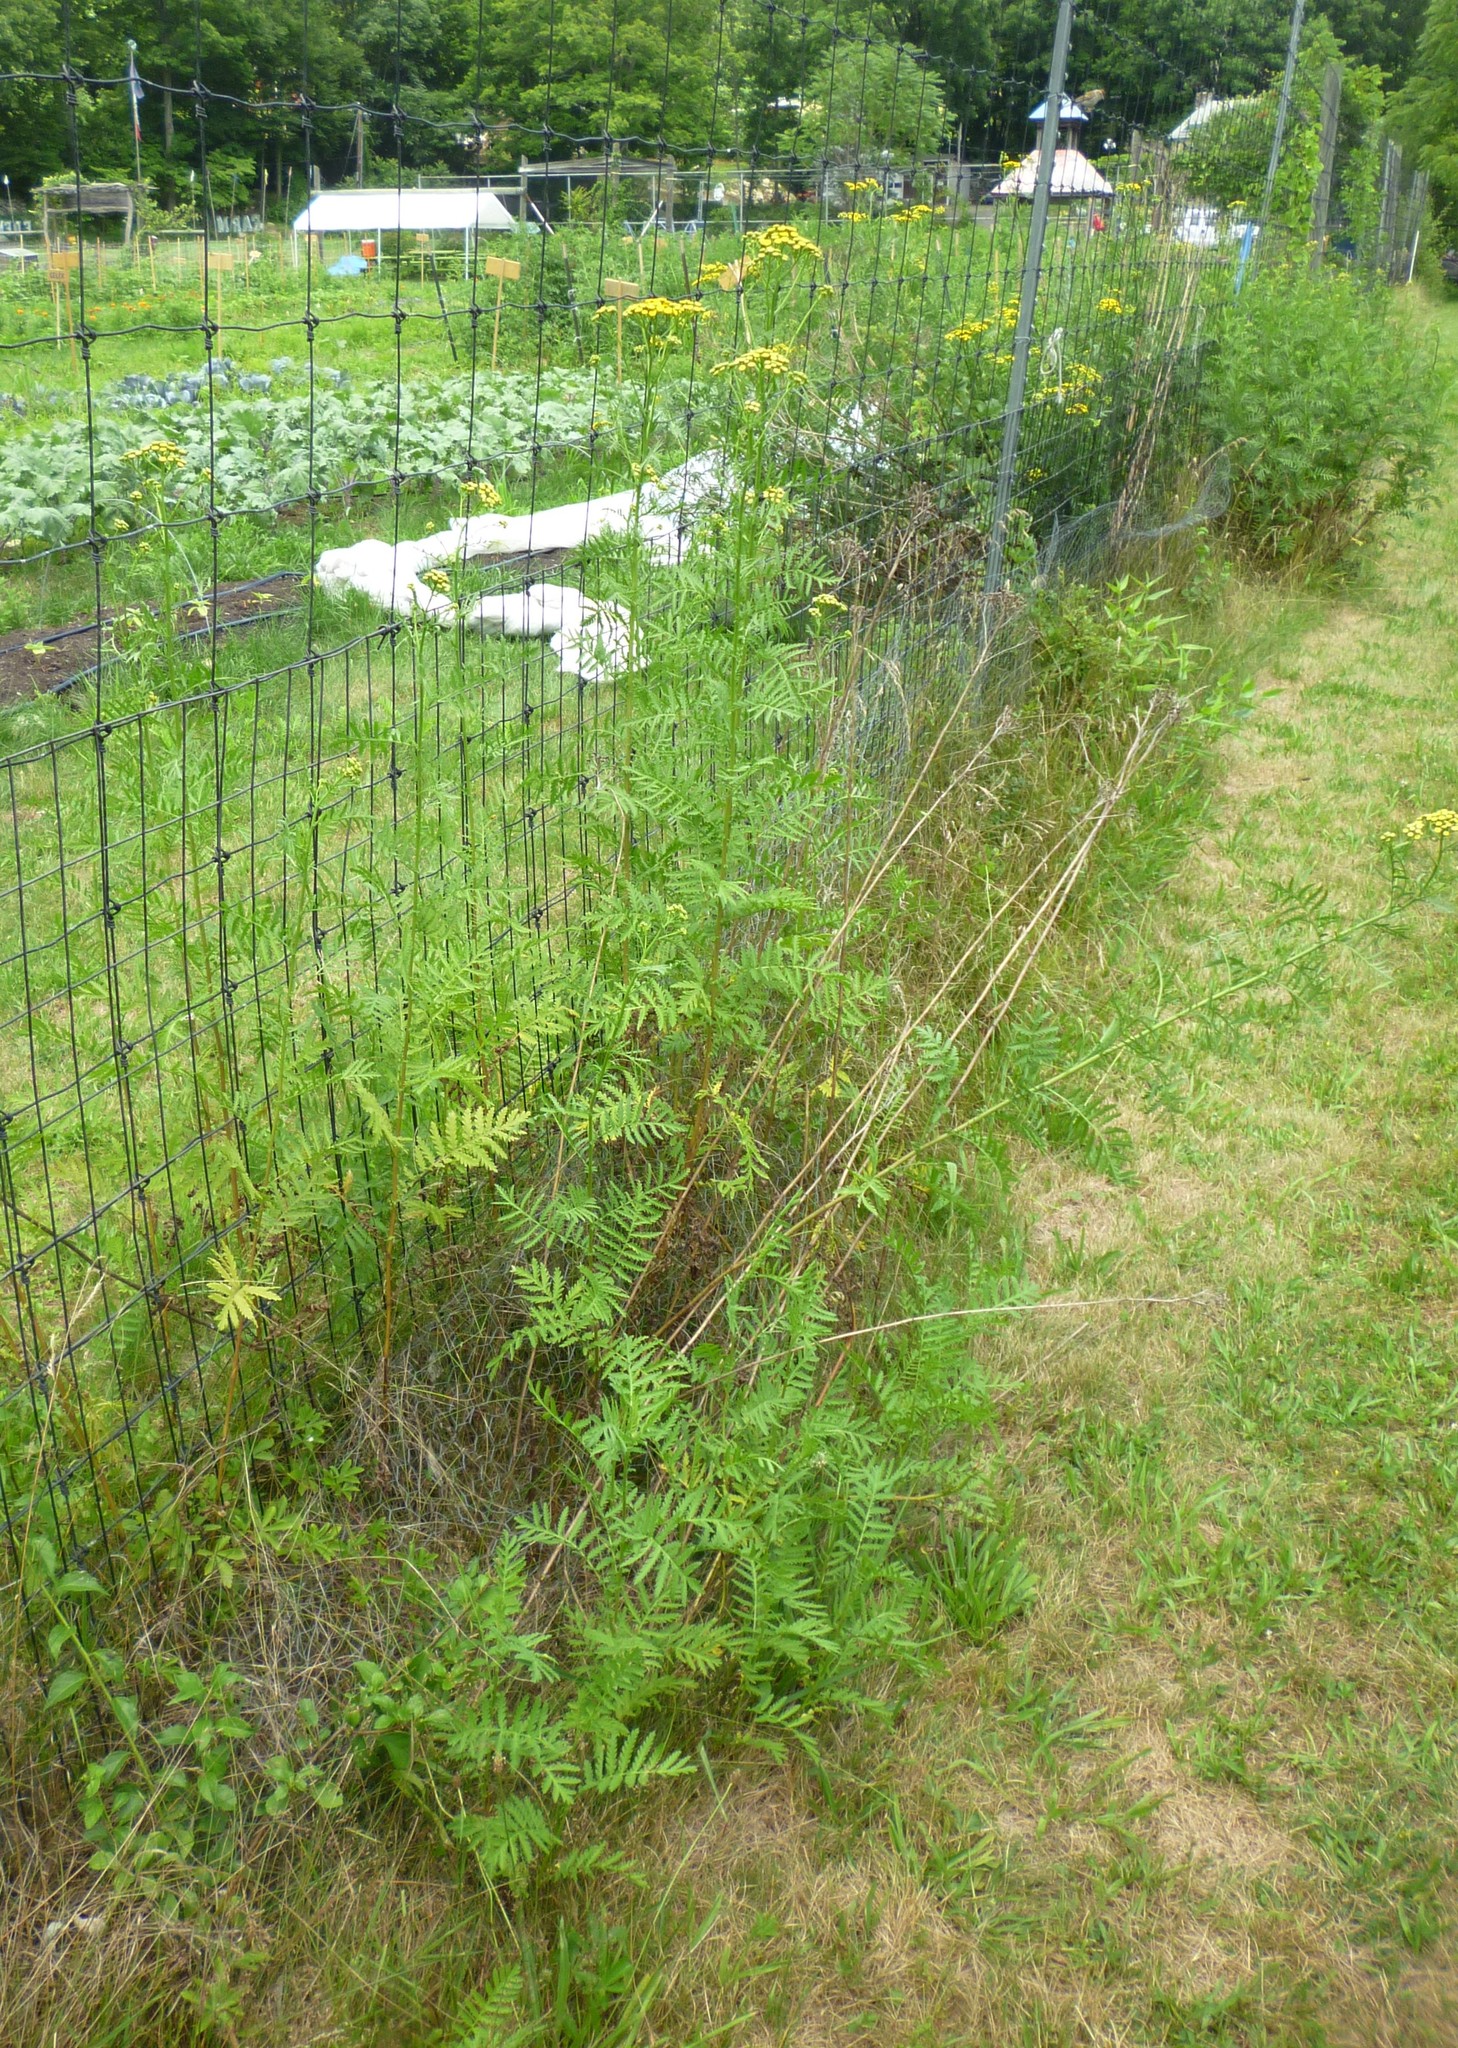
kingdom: Plantae
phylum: Tracheophyta
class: Magnoliopsida
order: Asterales
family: Asteraceae
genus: Tanacetum
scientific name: Tanacetum vulgare
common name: Common tansy
